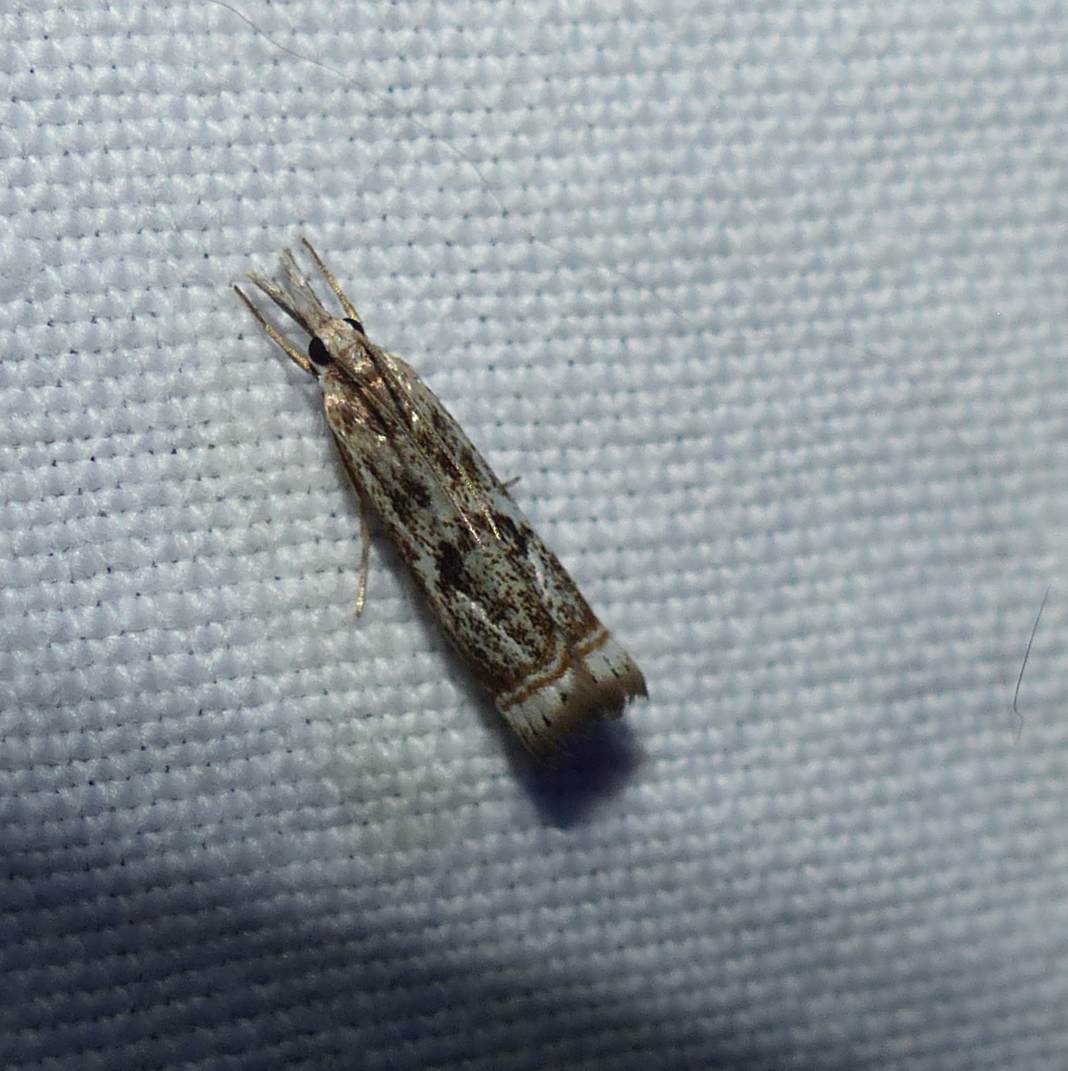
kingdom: Animalia
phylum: Arthropoda
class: Insecta
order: Lepidoptera
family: Crambidae
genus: Microcrambus
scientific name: Microcrambus elegans
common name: Elegant grass-veneer
